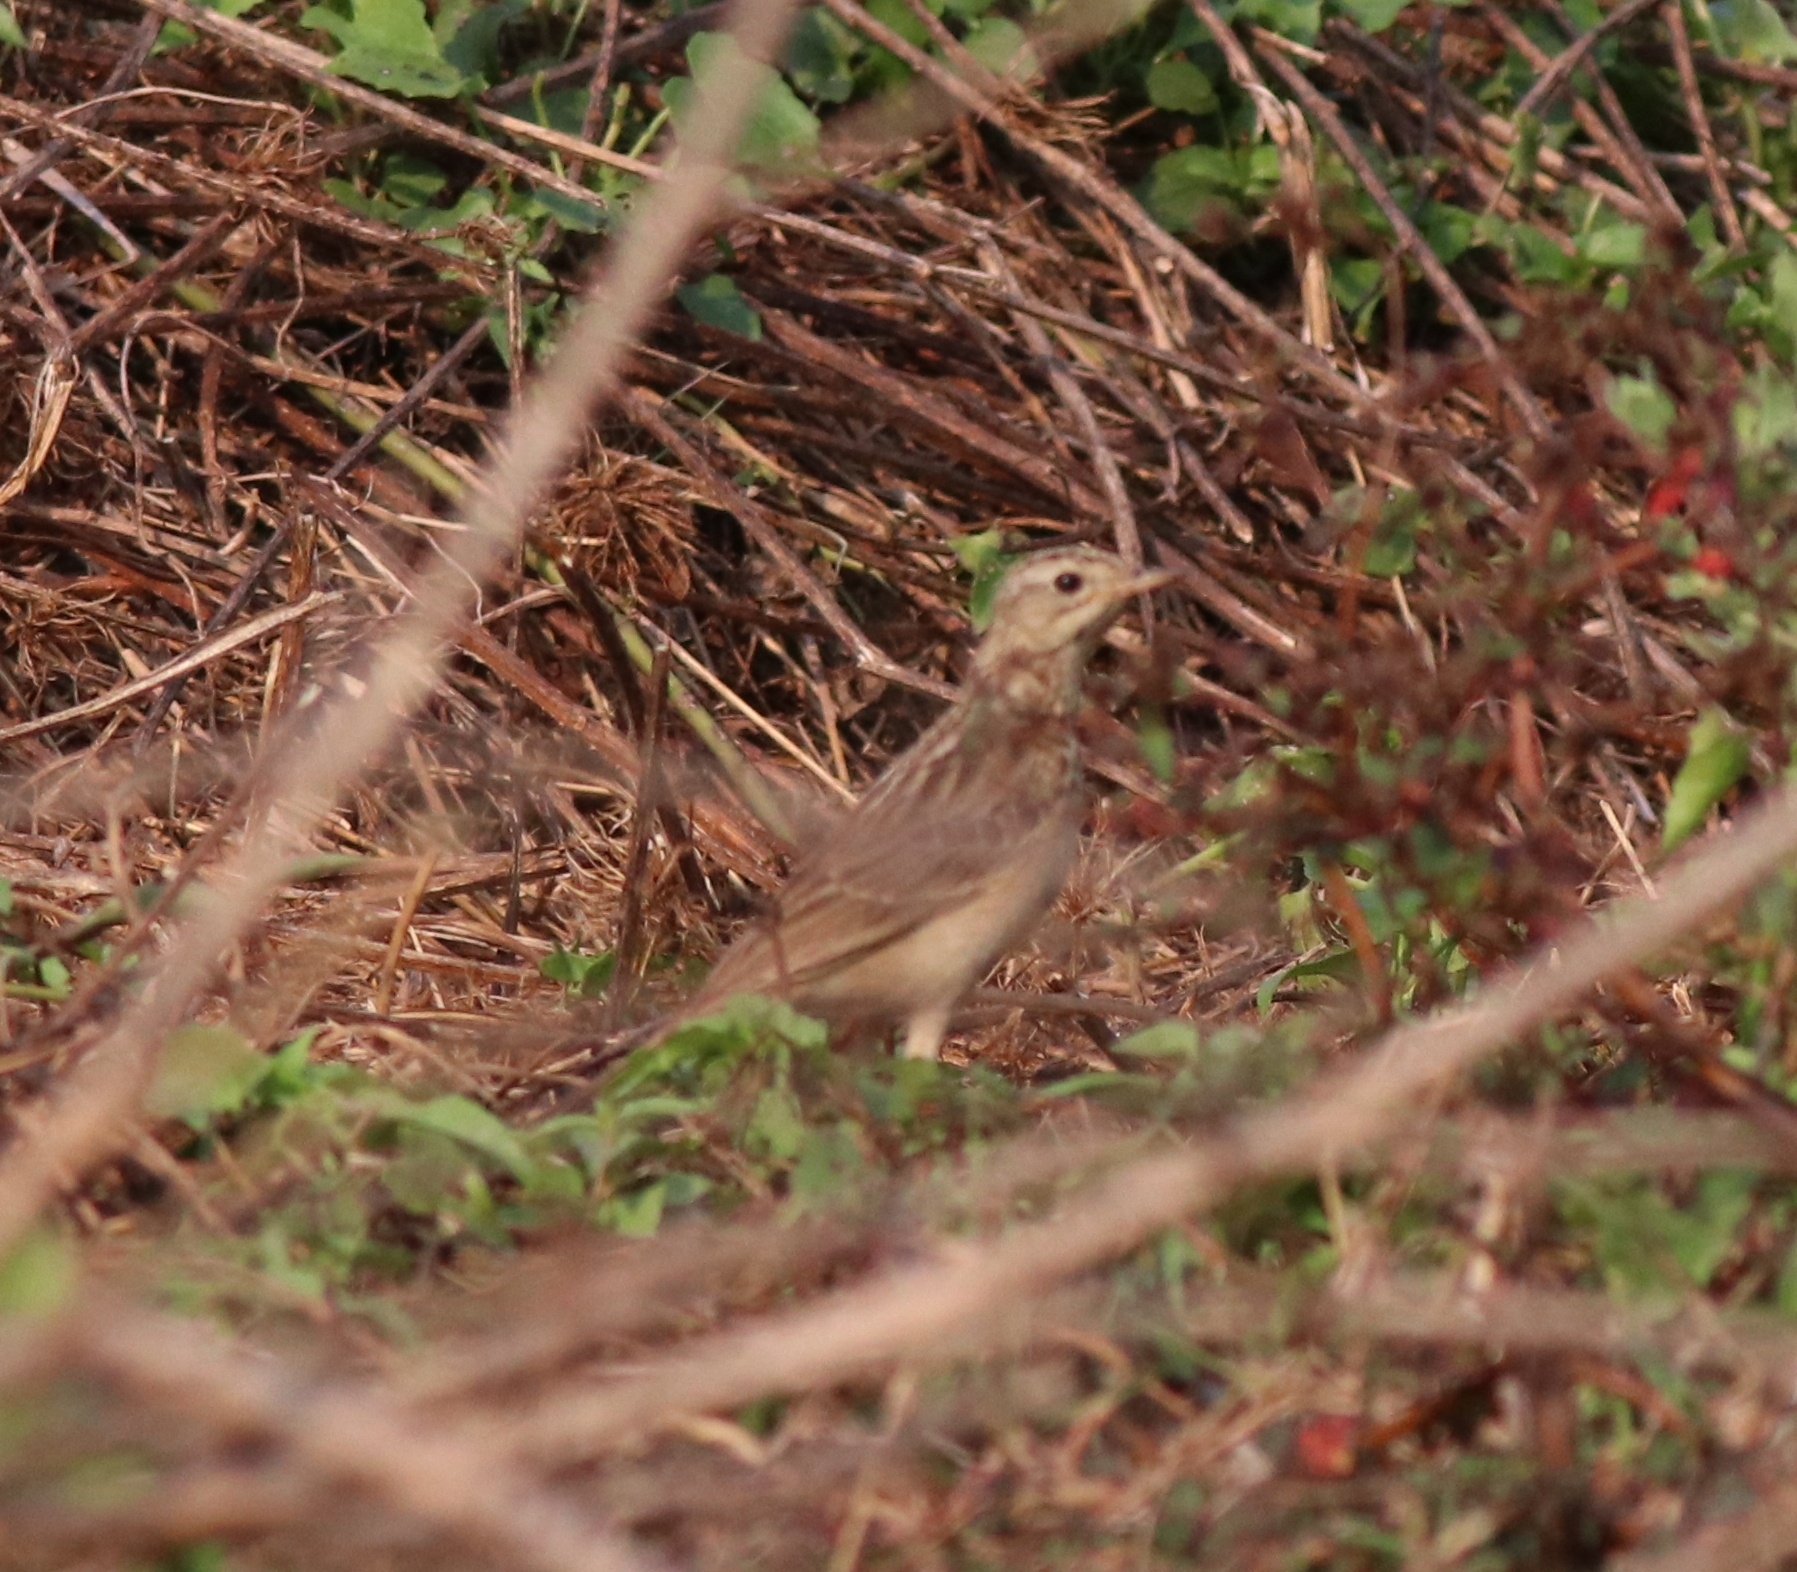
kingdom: Animalia
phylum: Chordata
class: Aves
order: Passeriformes
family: Motacillidae
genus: Anthus
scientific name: Anthus godlewskii
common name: Blyth's pipit
